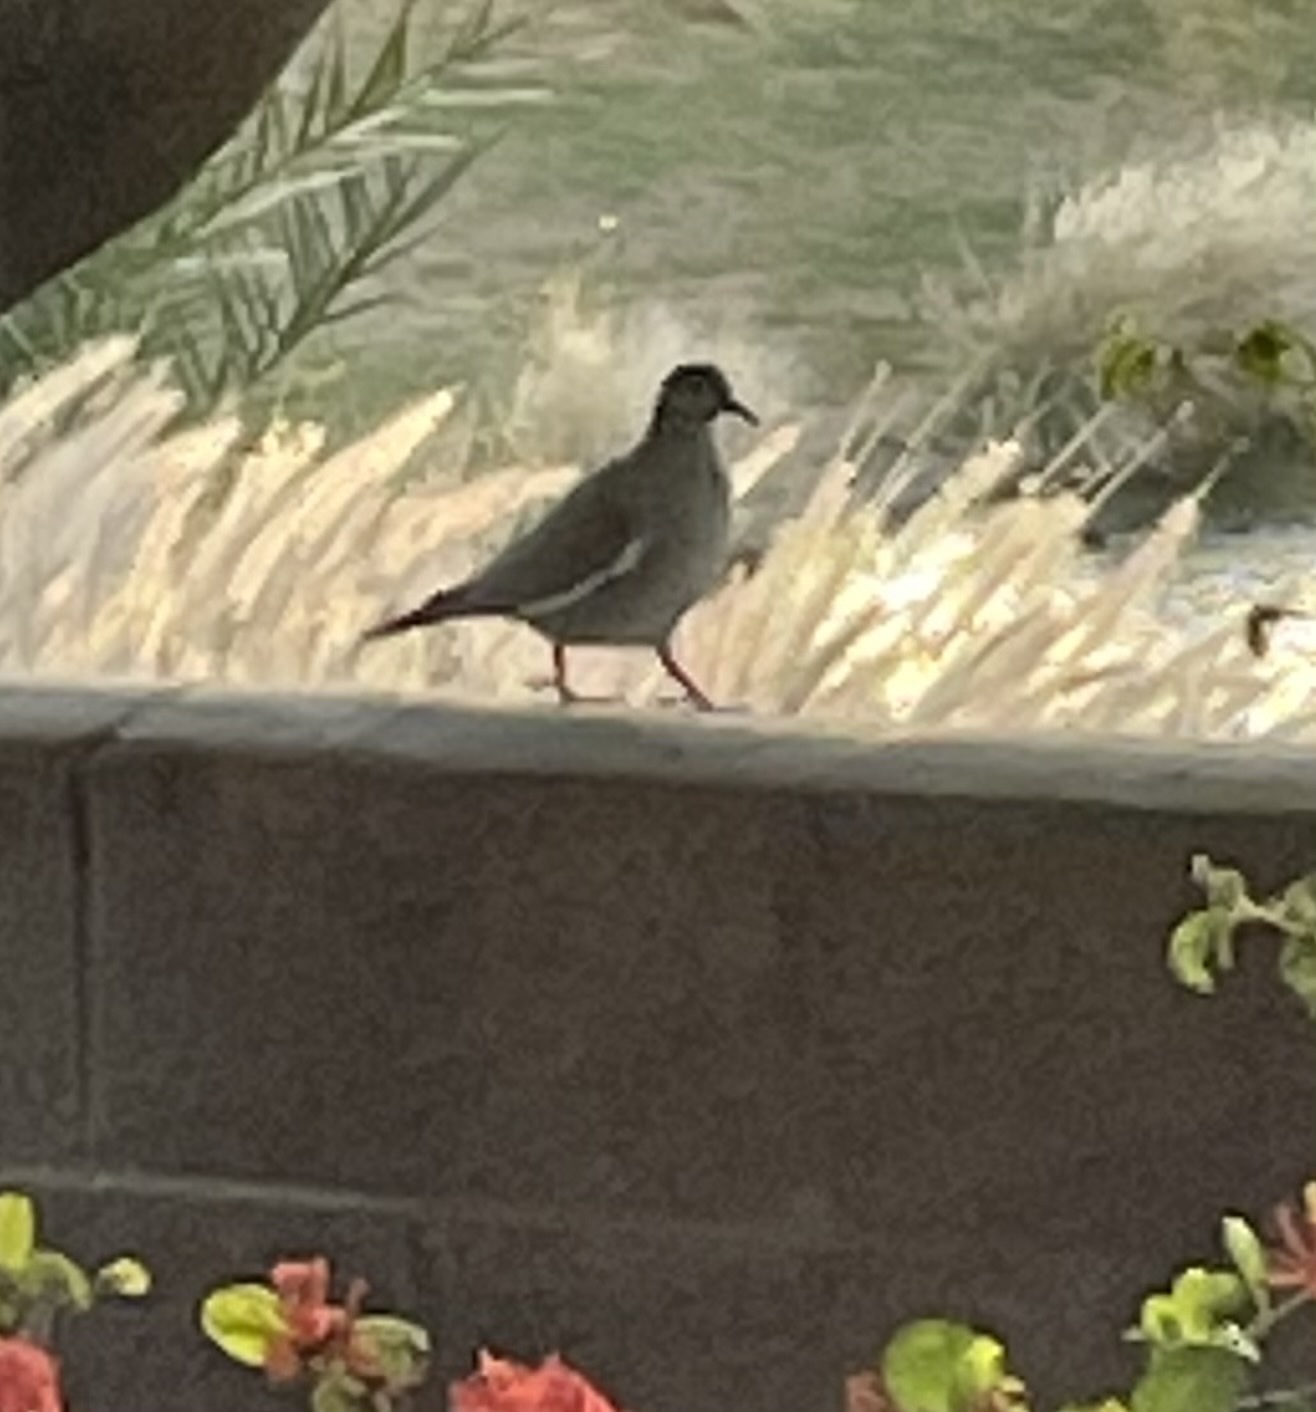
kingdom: Animalia
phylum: Chordata
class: Aves
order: Columbiformes
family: Columbidae
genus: Zenaida
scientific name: Zenaida asiatica
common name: White-winged dove
